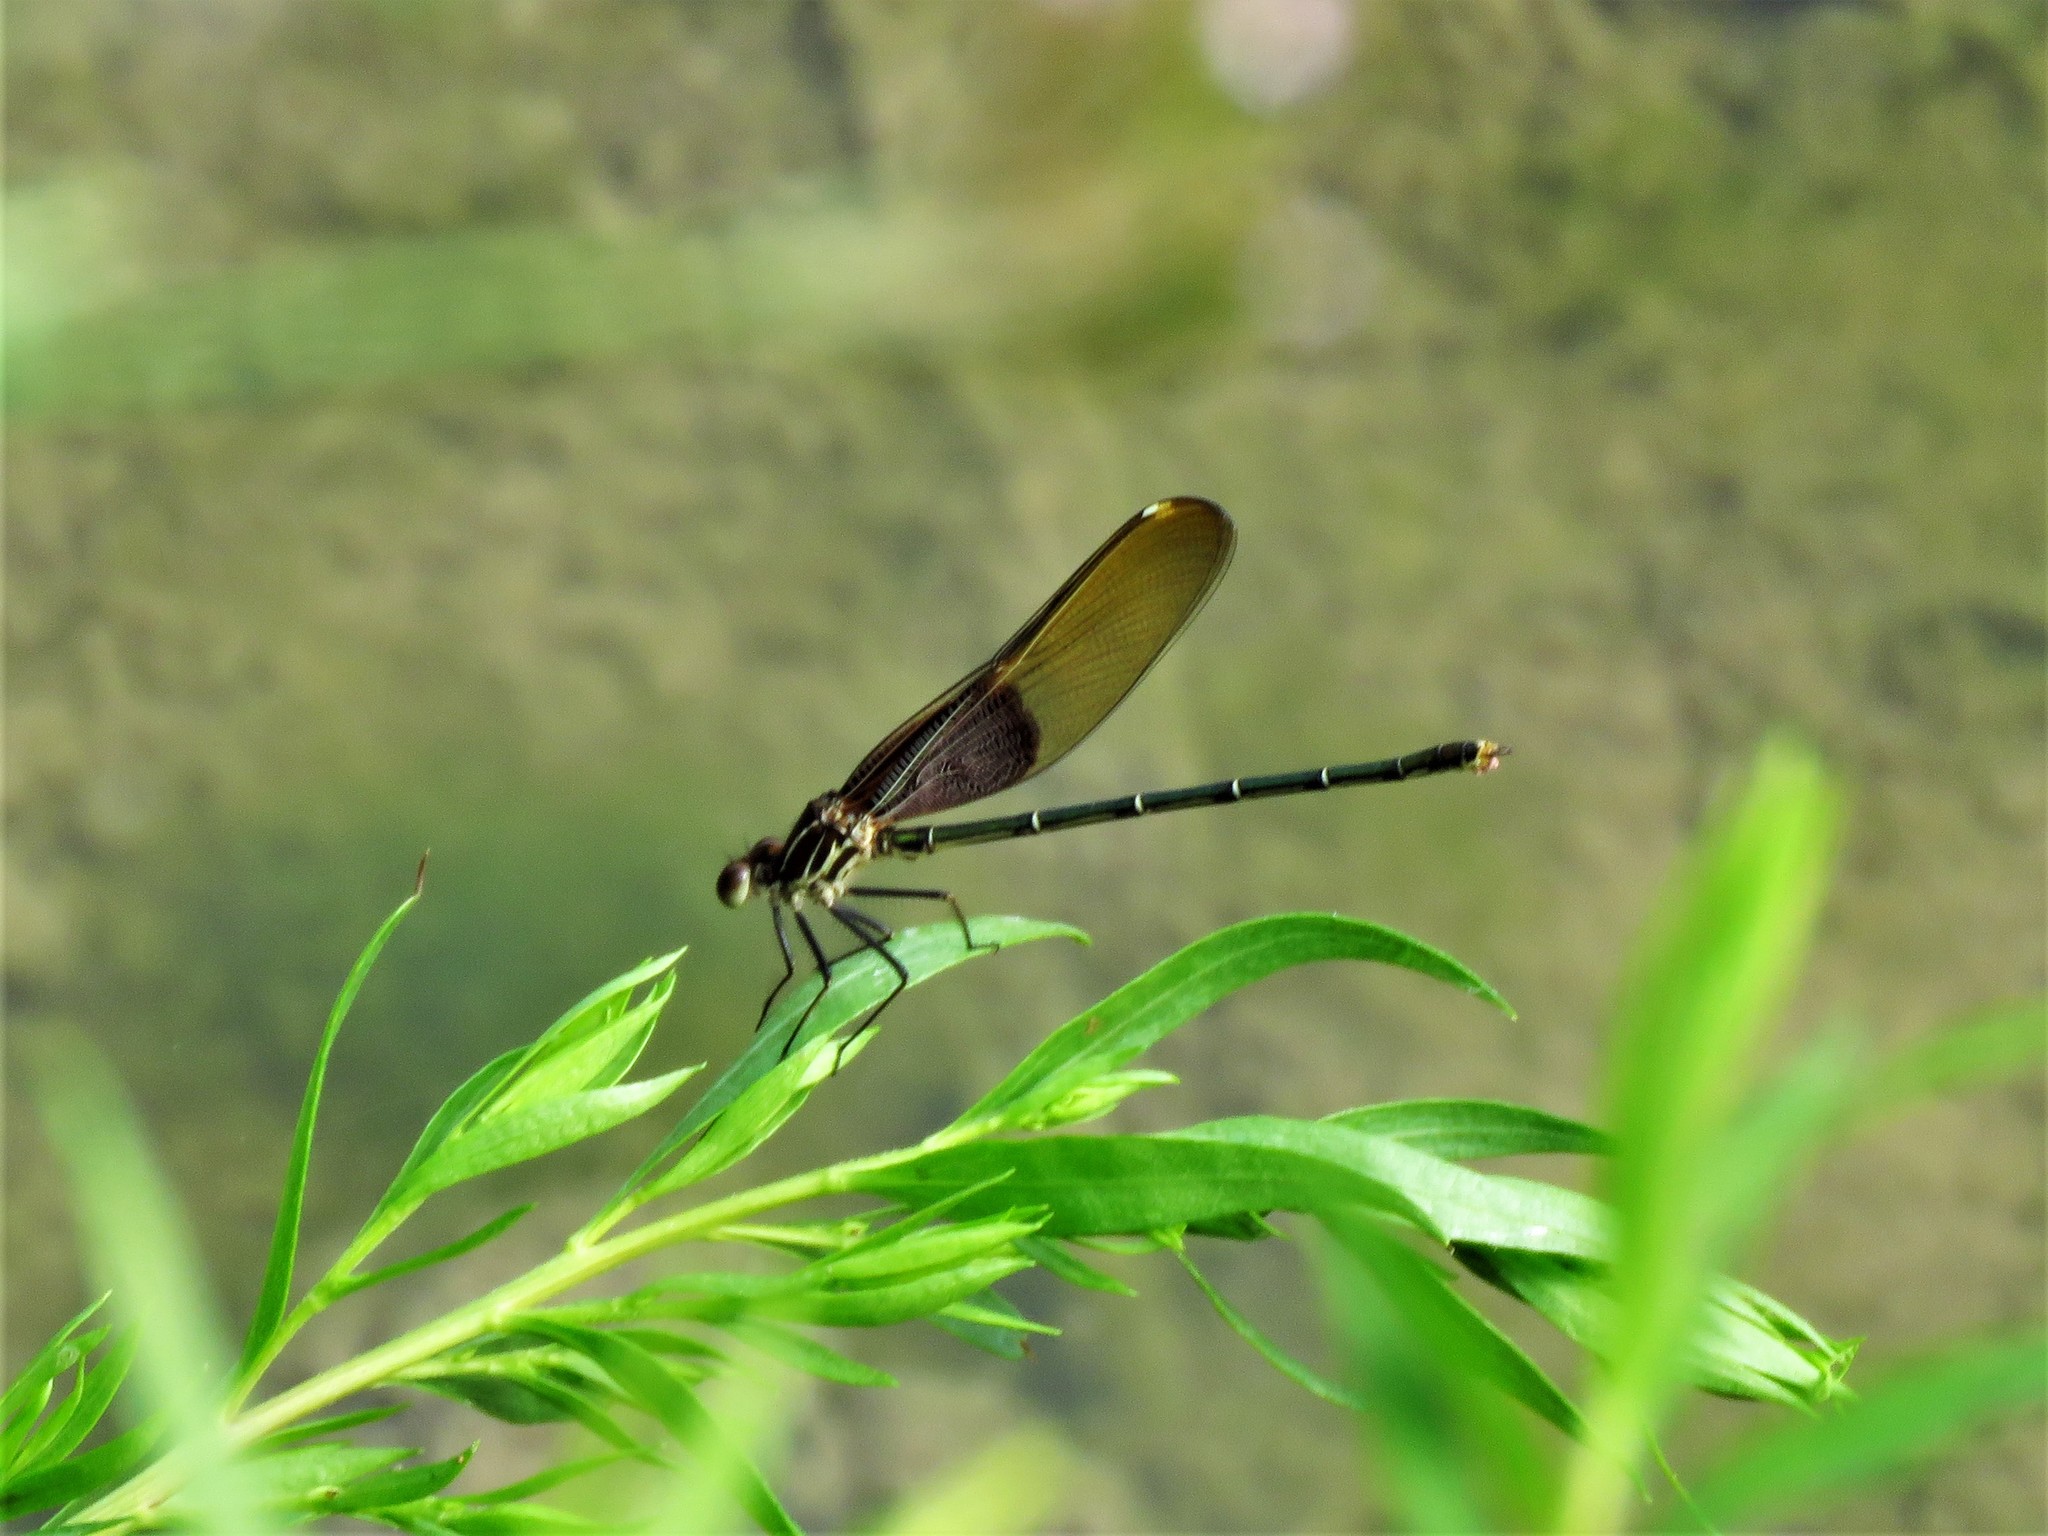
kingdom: Animalia
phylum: Arthropoda
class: Insecta
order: Odonata
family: Calopterygidae
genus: Hetaerina
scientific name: Hetaerina americana
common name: American rubyspot
